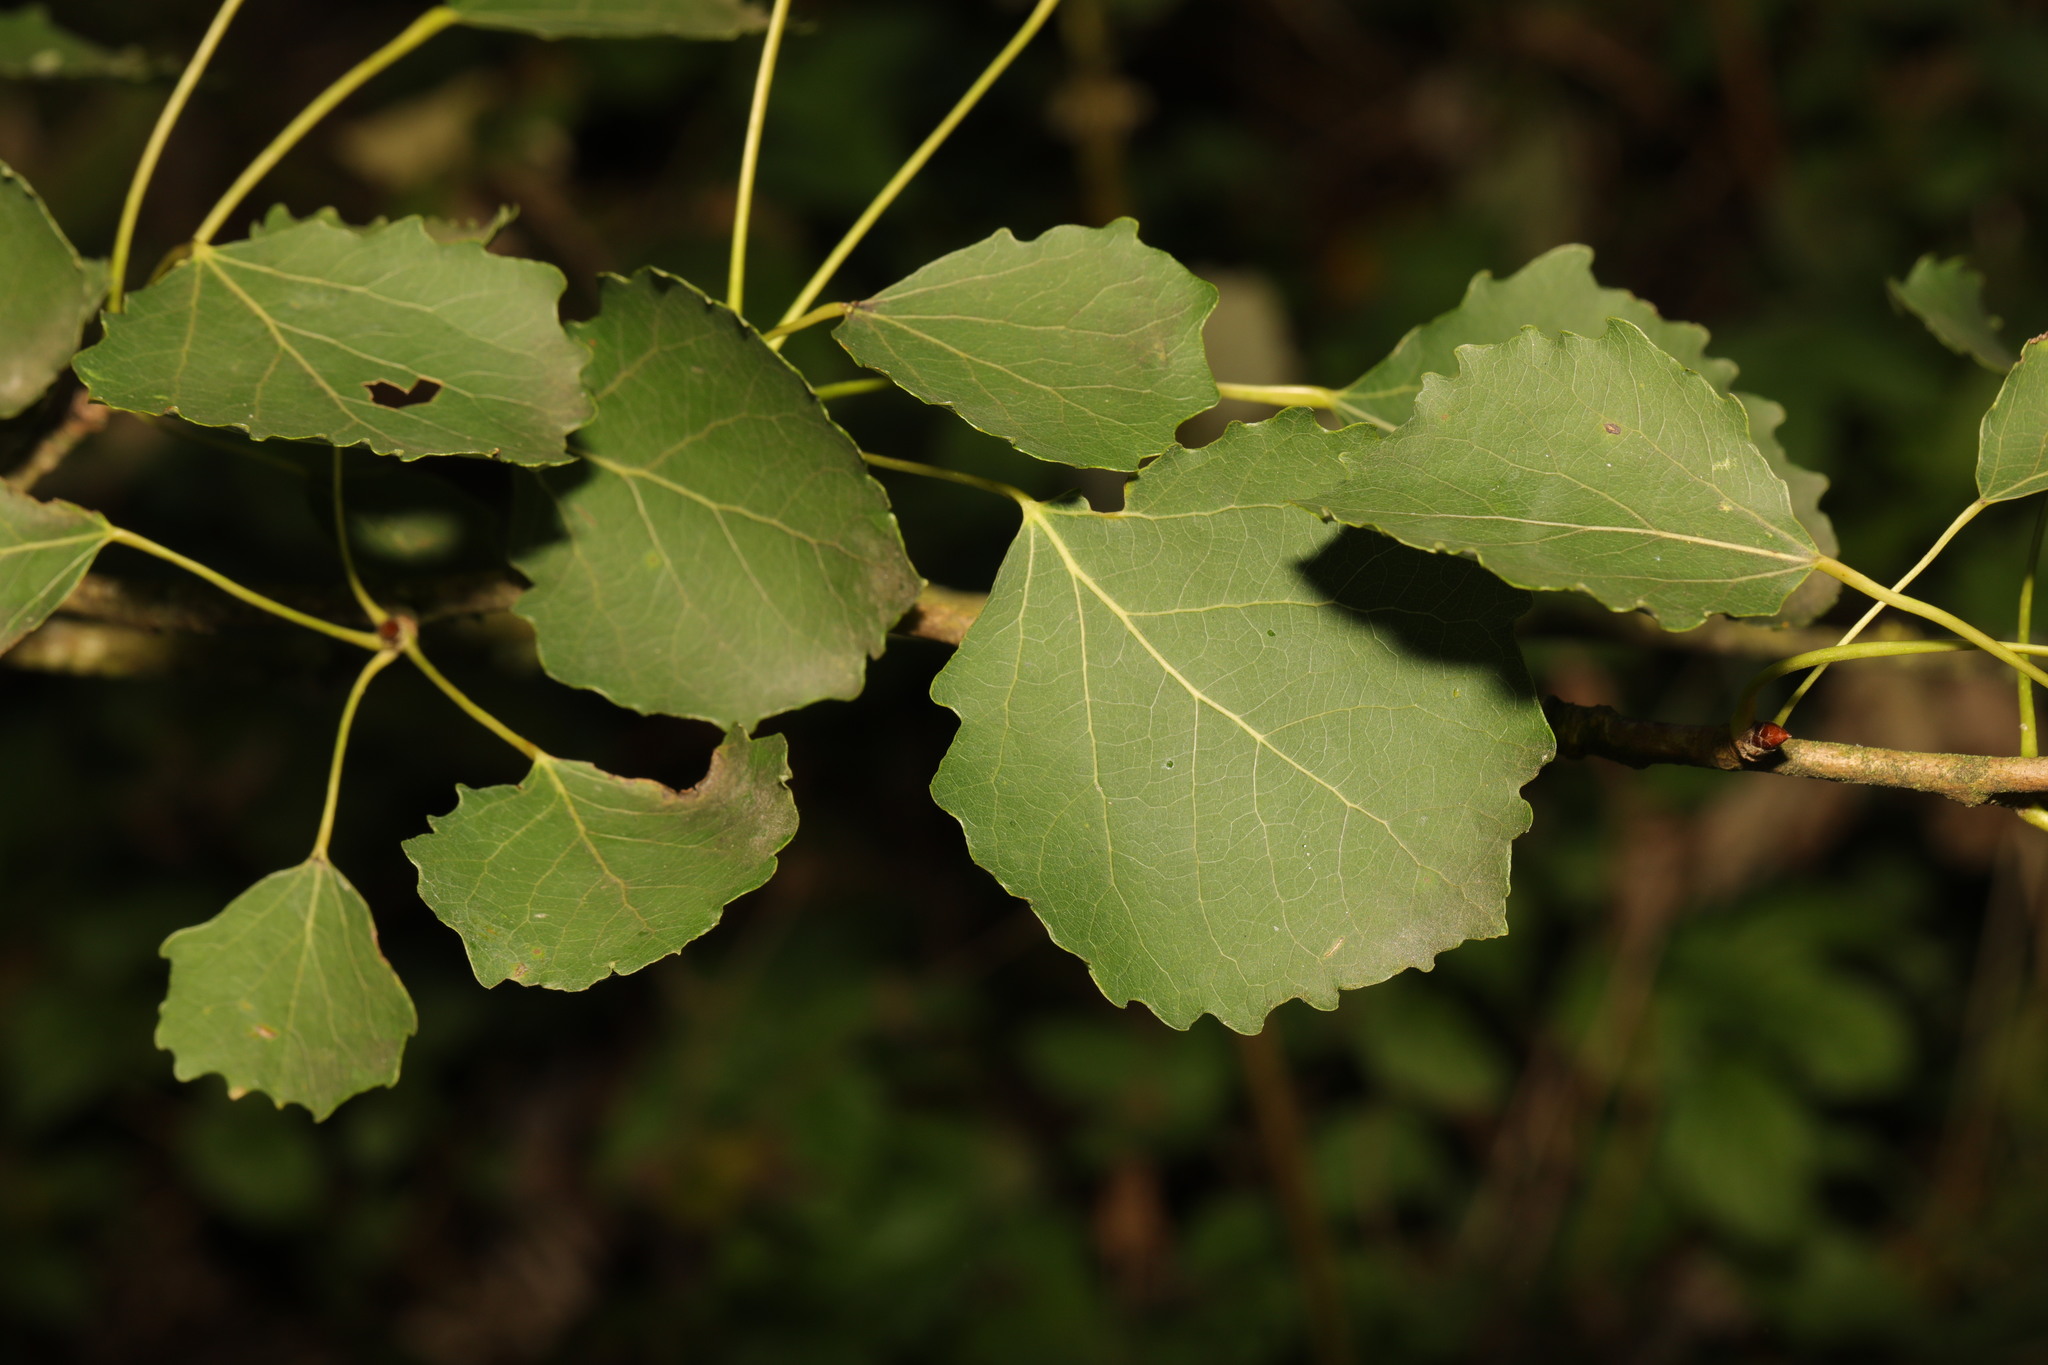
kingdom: Plantae
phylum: Tracheophyta
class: Magnoliopsida
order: Malpighiales
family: Salicaceae
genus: Populus
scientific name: Populus tremula
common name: European aspen
